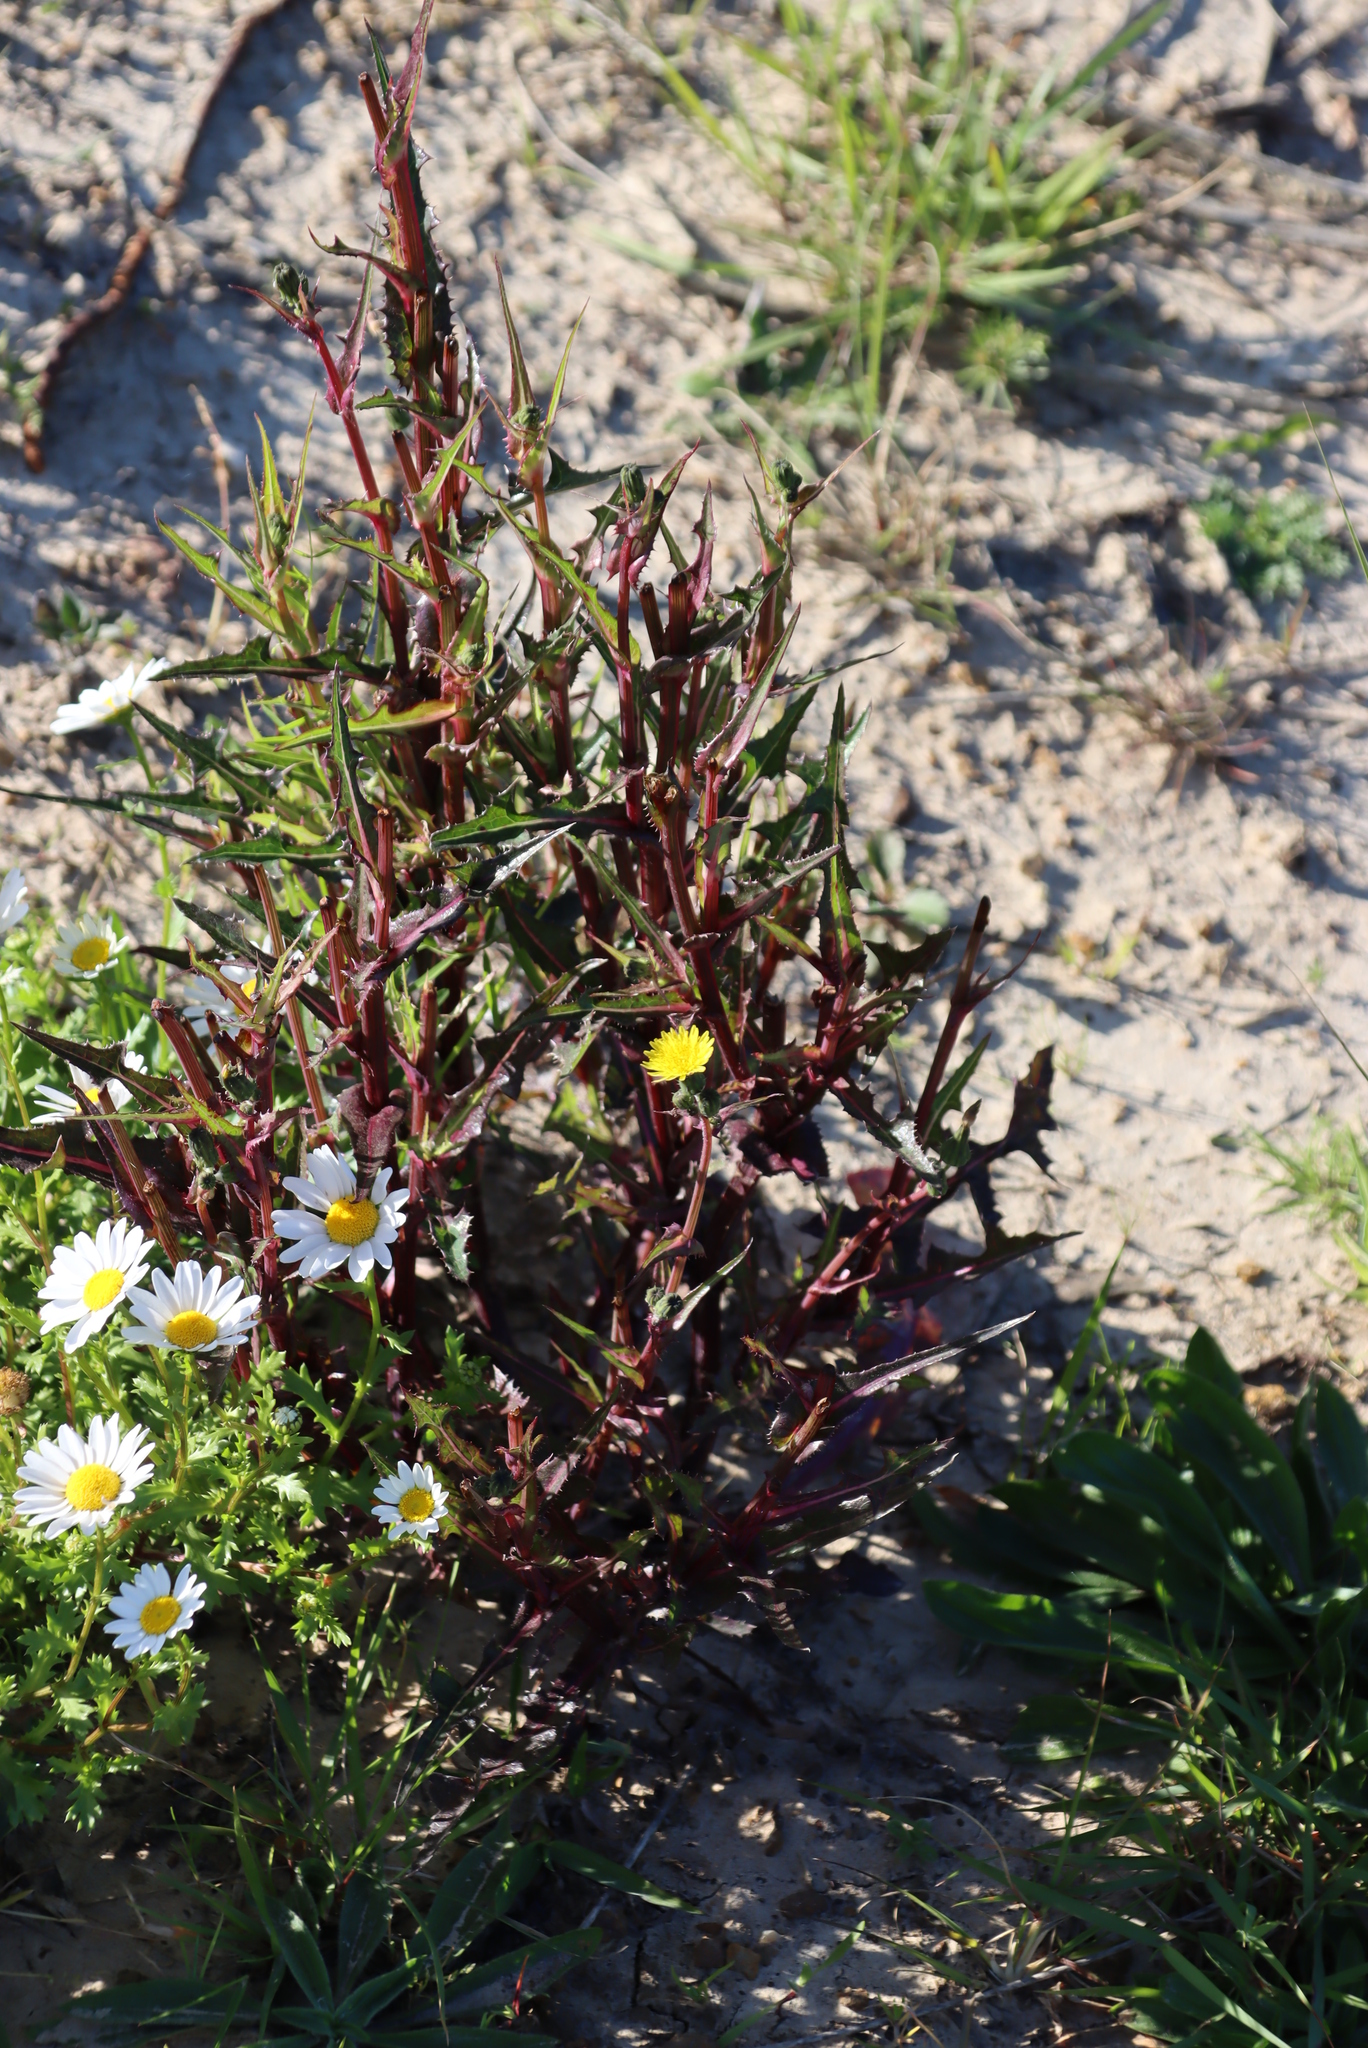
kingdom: Plantae
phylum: Tracheophyta
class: Magnoliopsida
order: Asterales
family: Asteraceae
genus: Sonchus
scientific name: Sonchus oleraceus
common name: Common sowthistle
